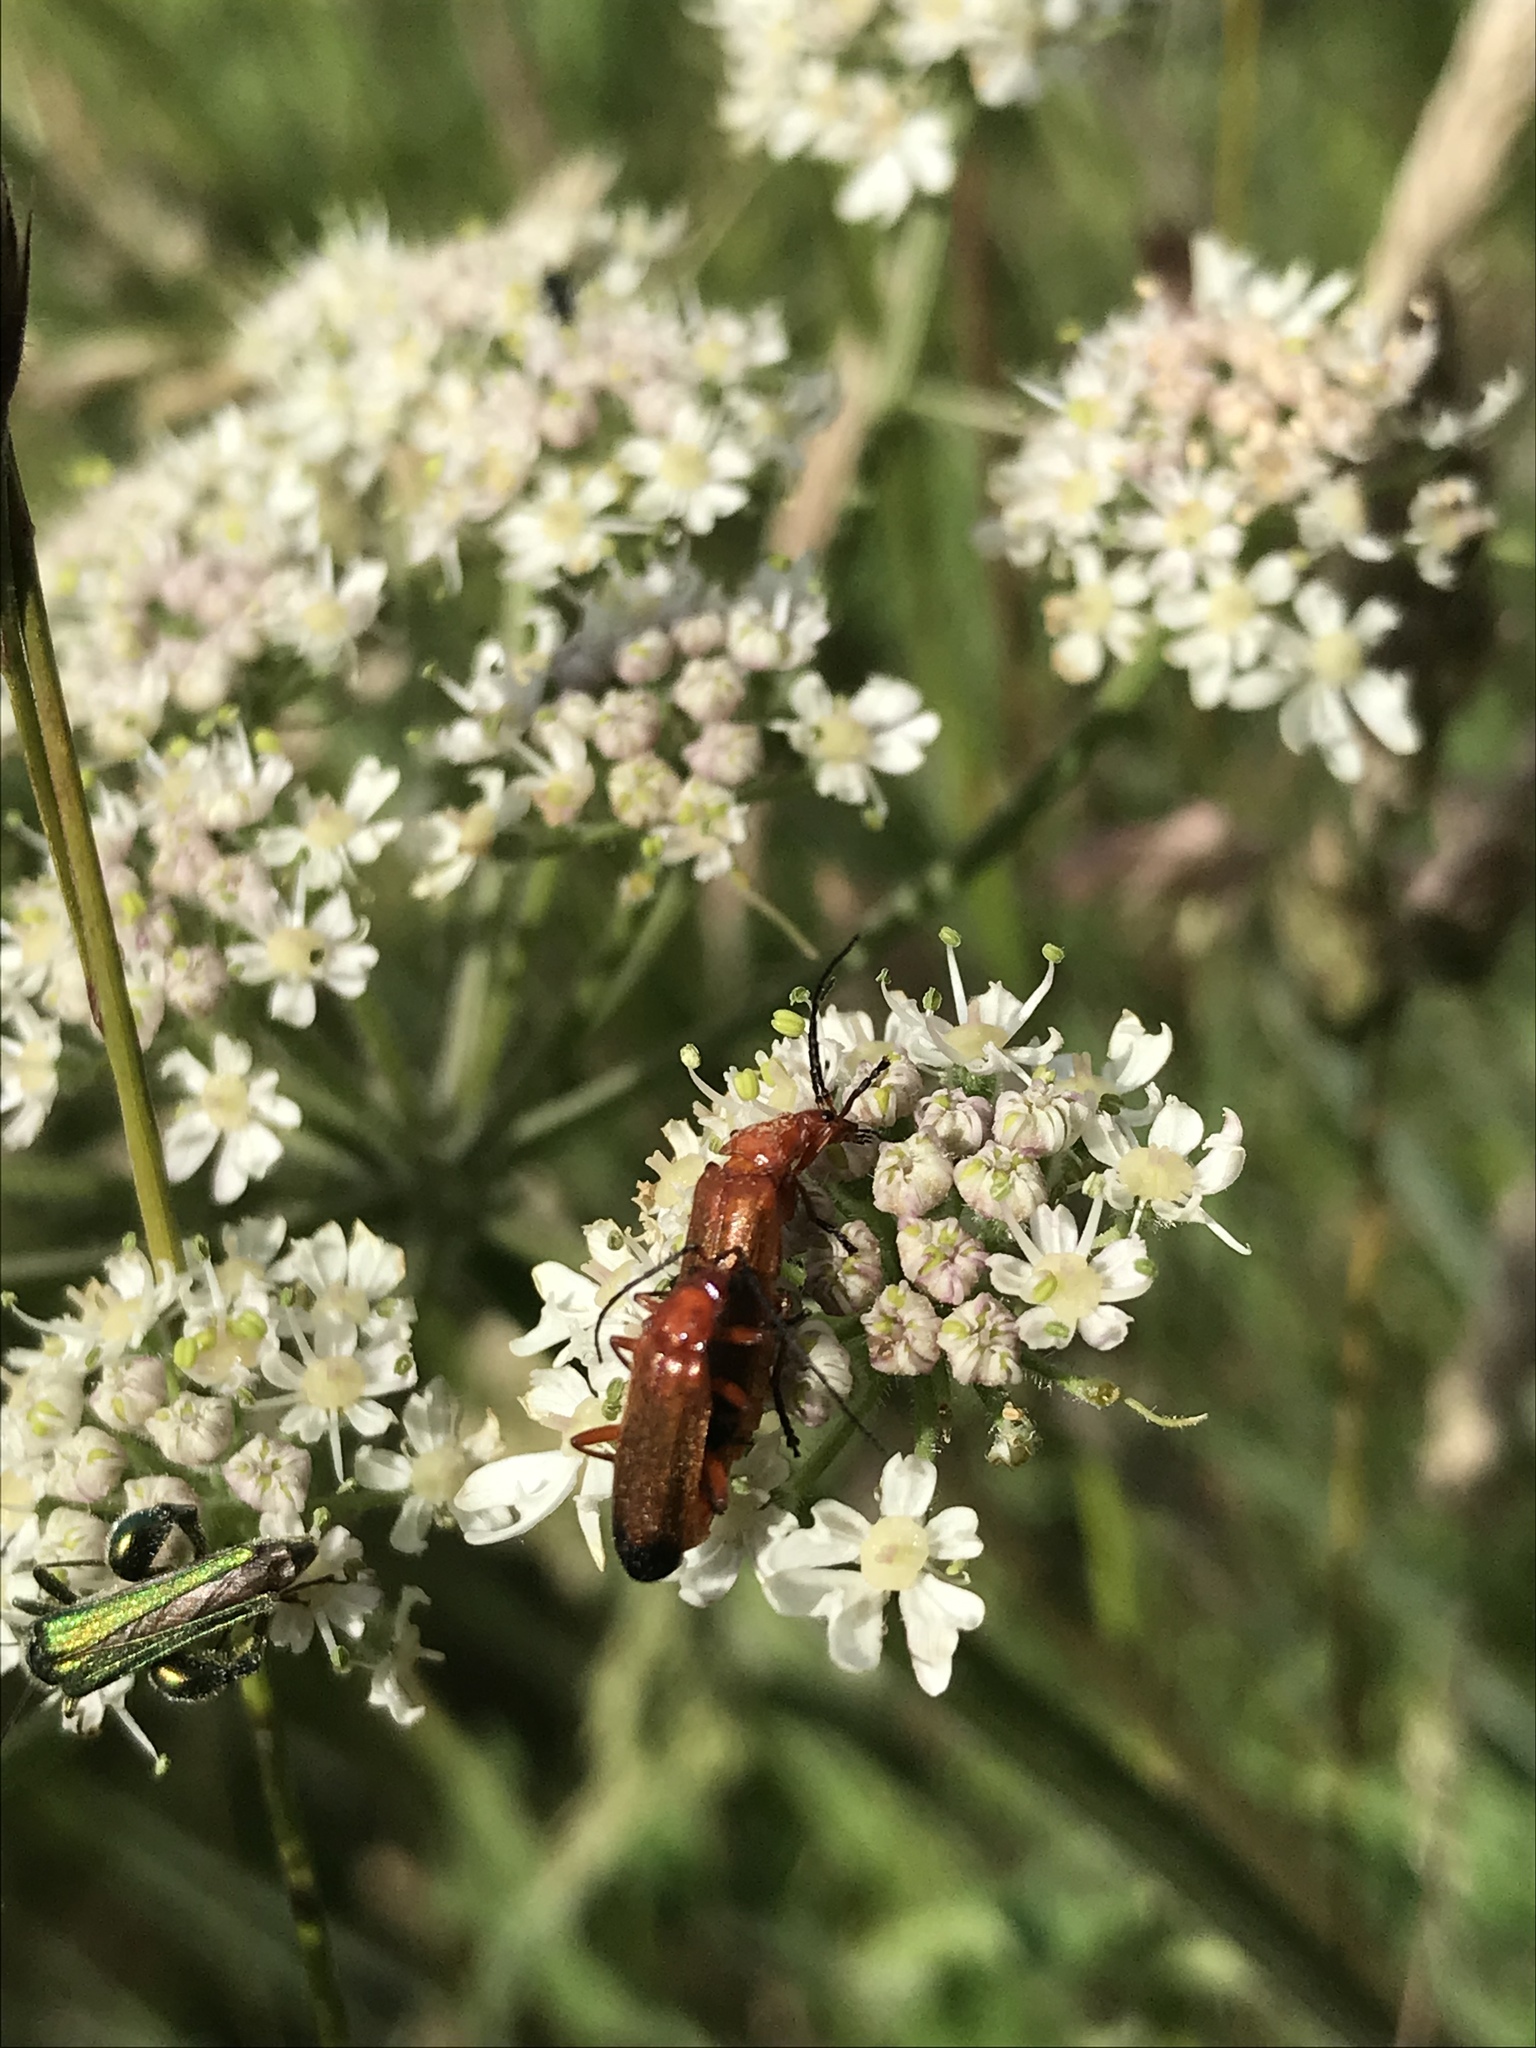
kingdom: Animalia
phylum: Arthropoda
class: Insecta
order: Coleoptera
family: Cantharidae
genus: Rhagonycha
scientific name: Rhagonycha fulva
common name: Common red soldier beetle
